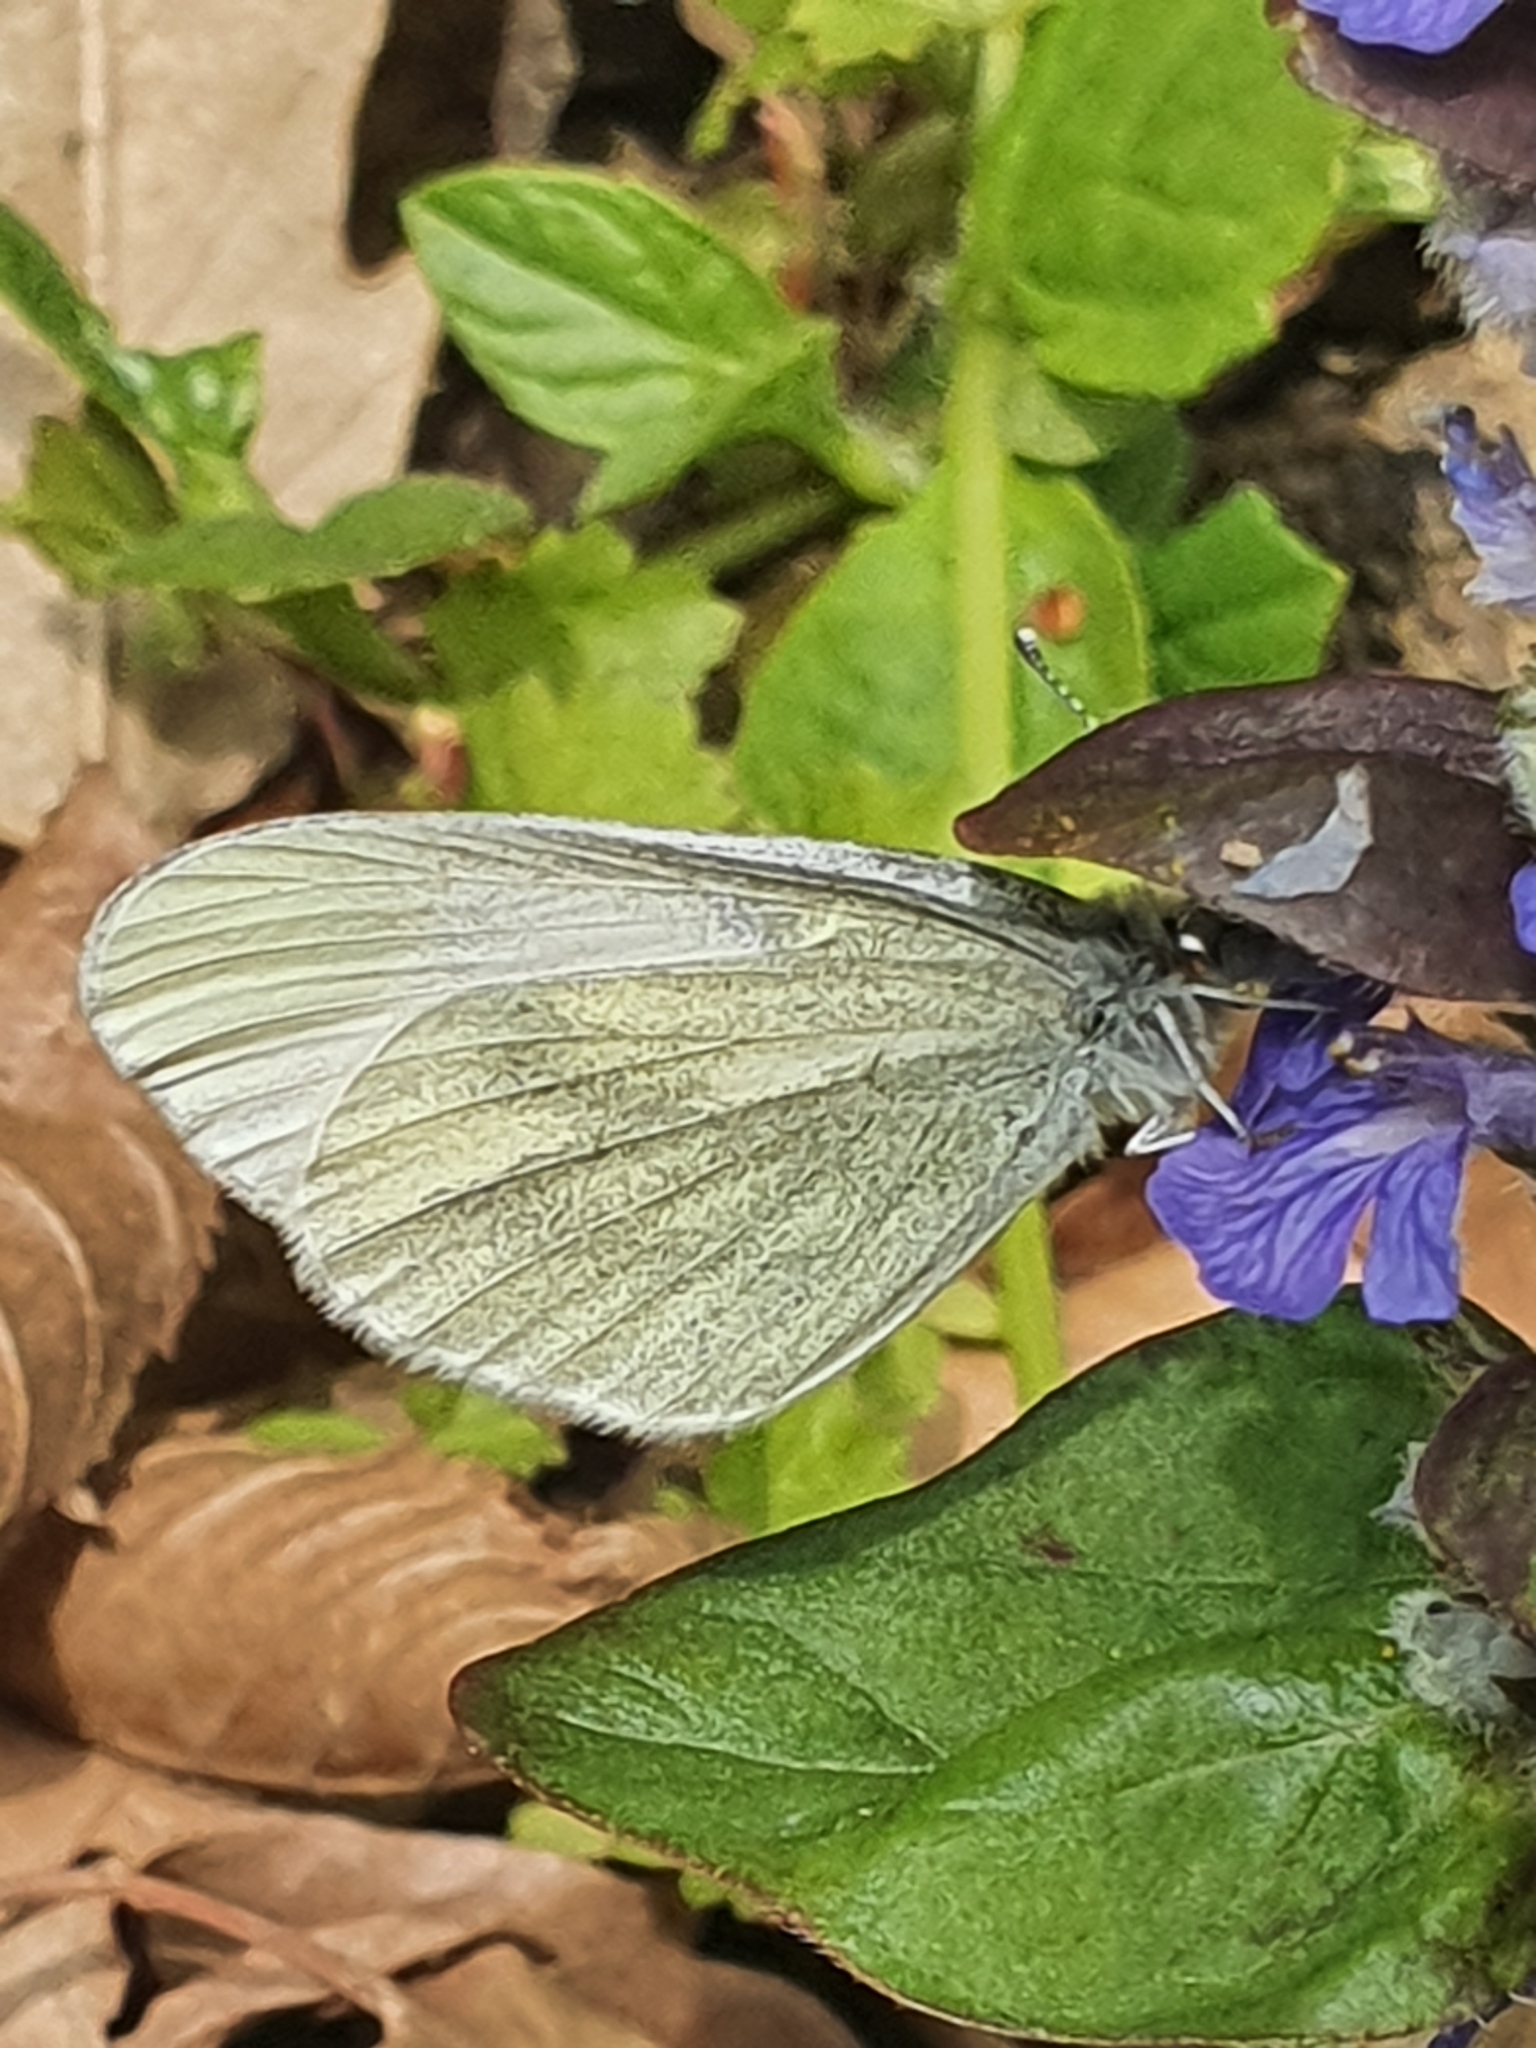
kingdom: Animalia
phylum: Arthropoda
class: Insecta
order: Lepidoptera
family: Pieridae
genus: Leptidea
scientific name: Leptidea
